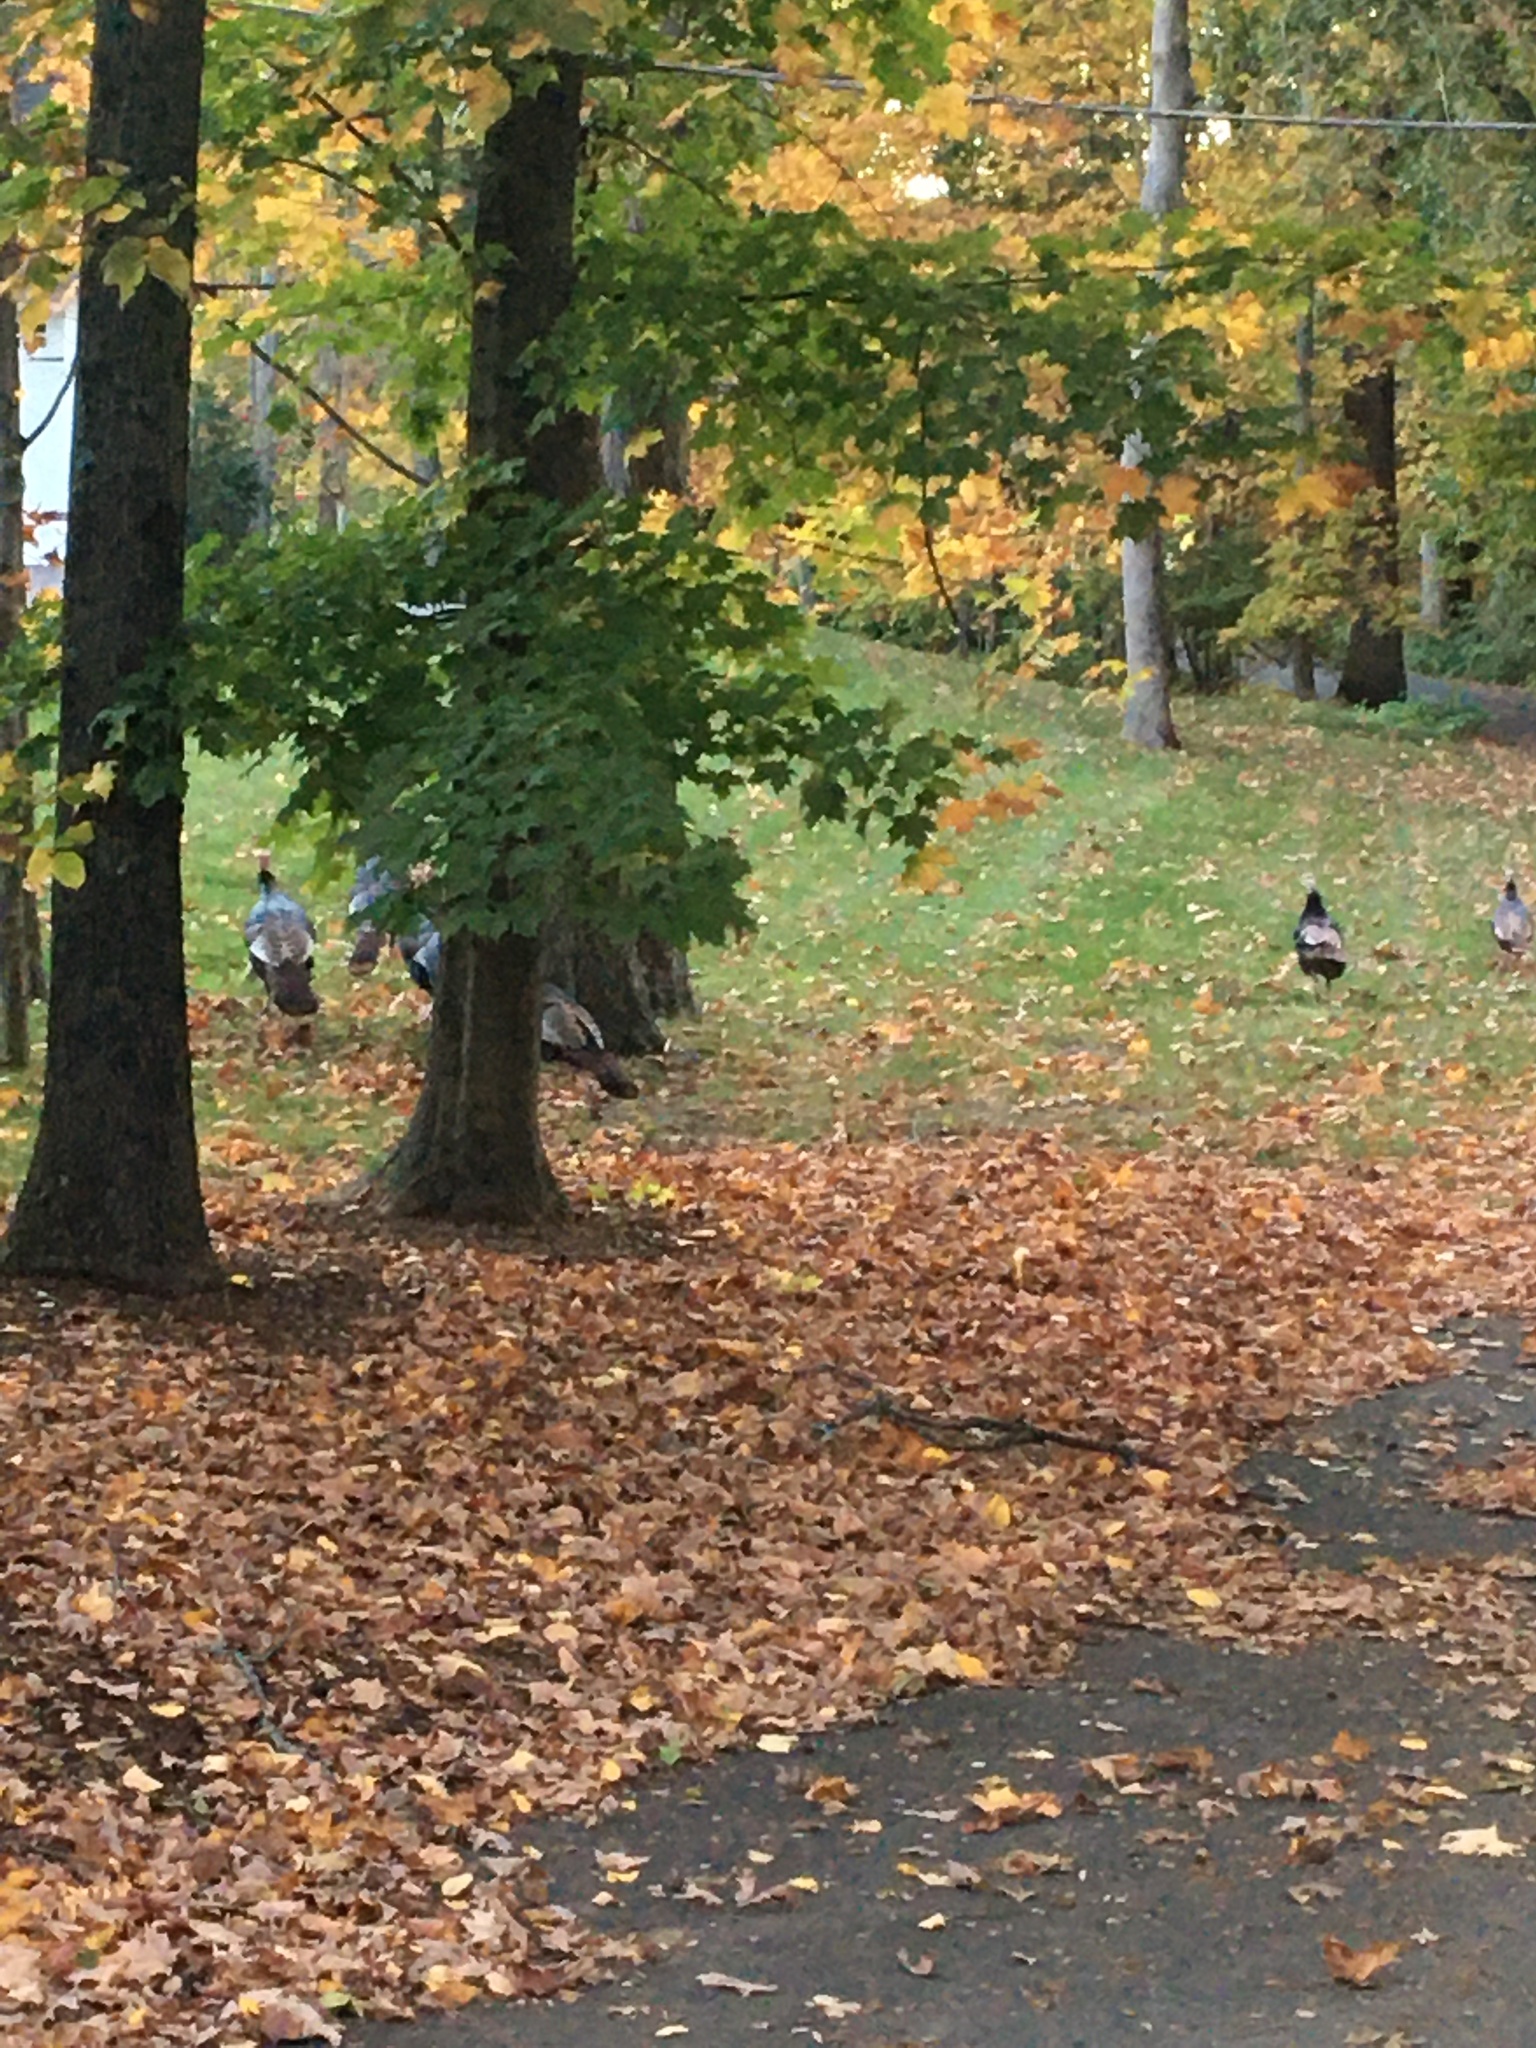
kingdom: Animalia
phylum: Chordata
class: Aves
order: Galliformes
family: Phasianidae
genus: Meleagris
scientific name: Meleagris gallopavo
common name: Wild turkey
